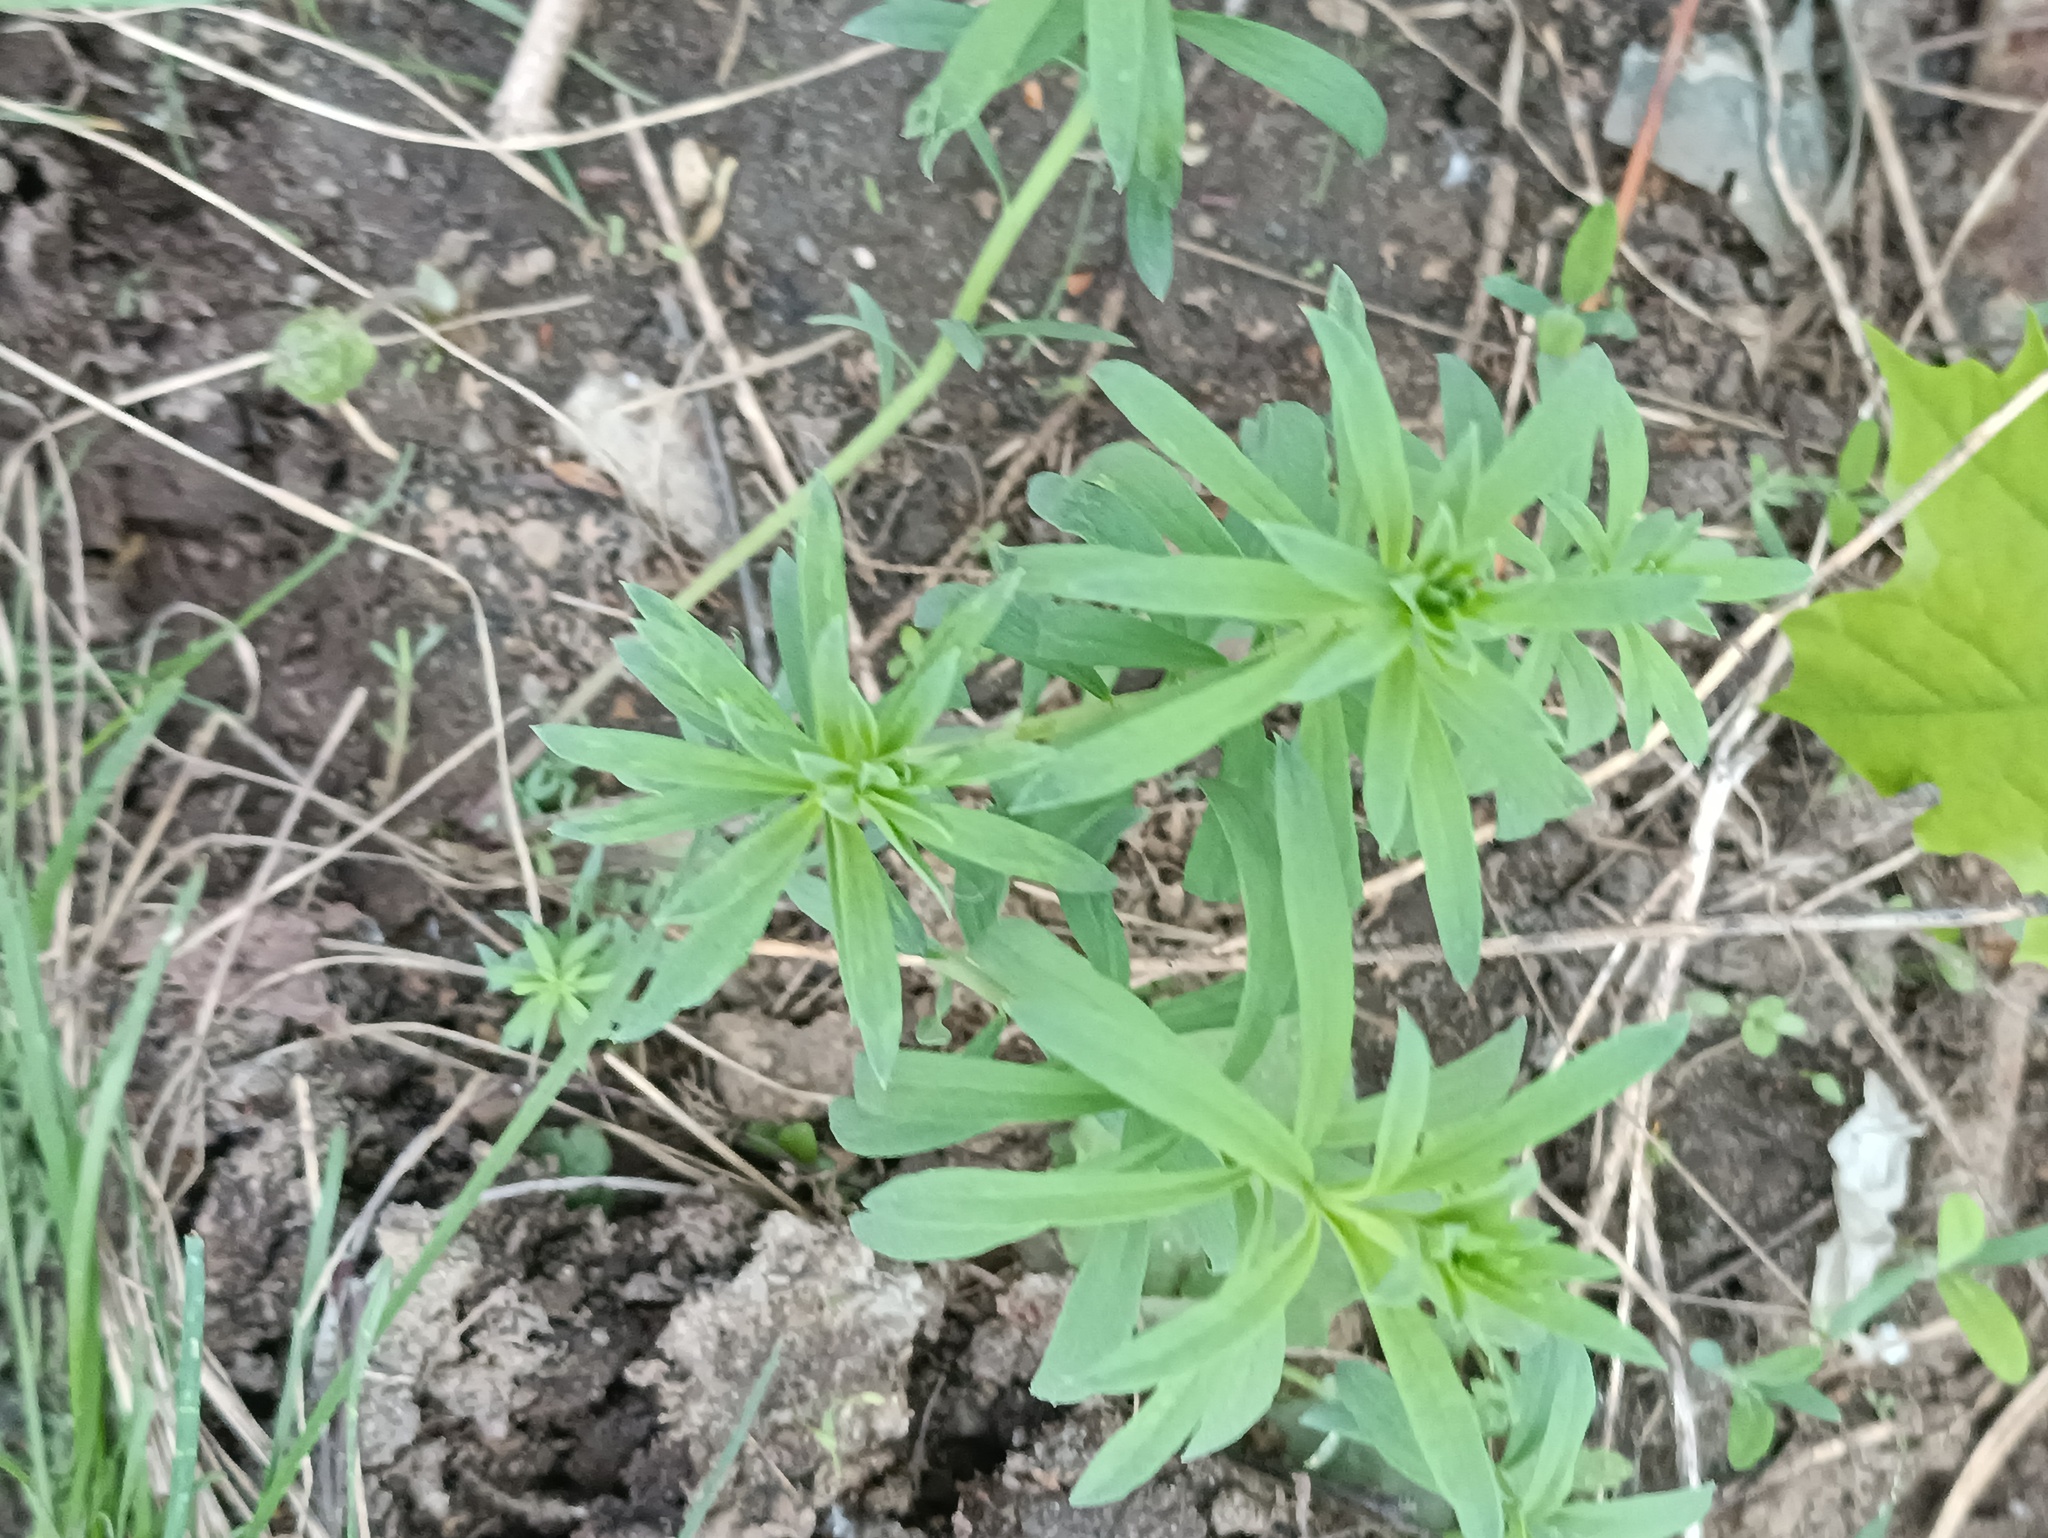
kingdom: Plantae
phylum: Tracheophyta
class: Magnoliopsida
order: Lamiales
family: Plantaginaceae
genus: Linaria
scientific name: Linaria vulgaris
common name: Butter and eggs
